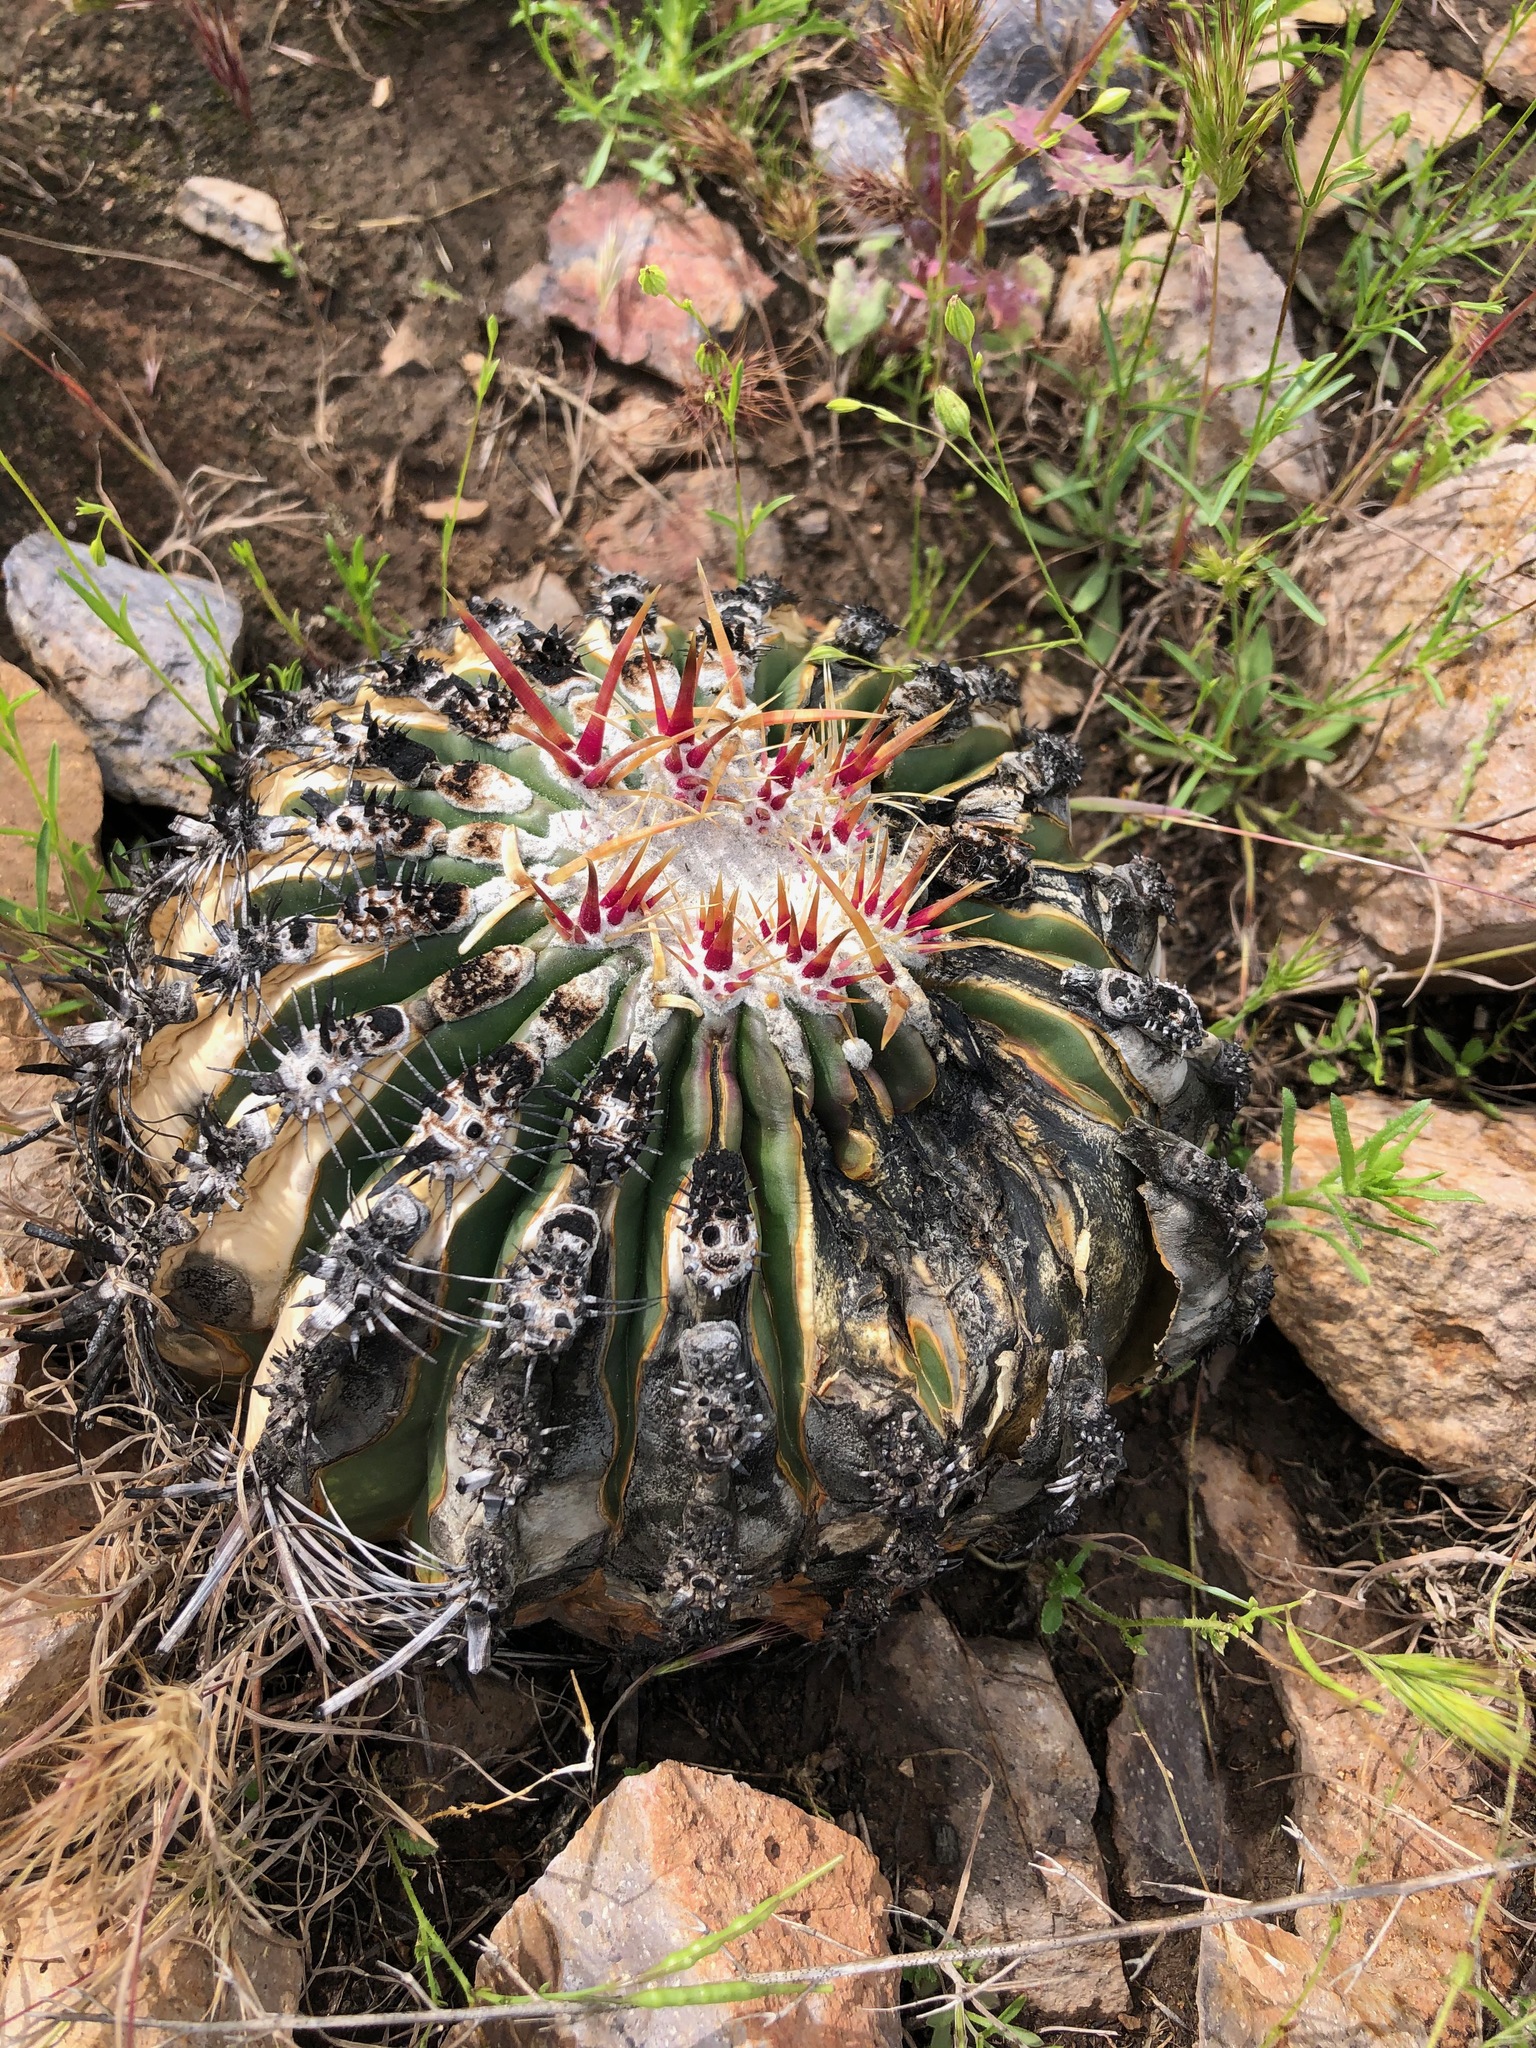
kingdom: Plantae
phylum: Tracheophyta
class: Magnoliopsida
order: Caryophyllales
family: Cactaceae
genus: Ferocactus
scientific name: Ferocactus viridescens
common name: San diego barrel cactus
